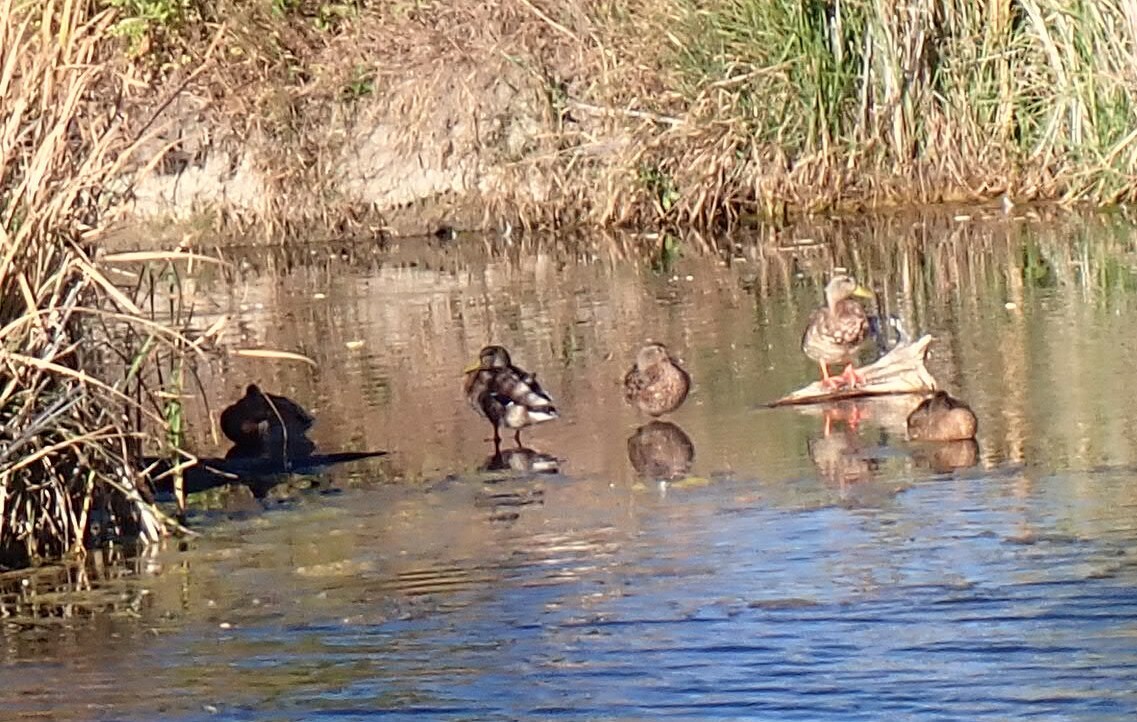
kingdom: Animalia
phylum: Chordata
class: Aves
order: Anseriformes
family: Anatidae
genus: Anas
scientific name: Anas platyrhynchos
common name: Mallard
